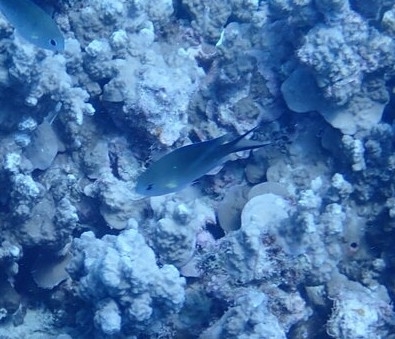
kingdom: Animalia
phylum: Chordata
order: Perciformes
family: Pomacentridae
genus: Chromis
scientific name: Chromis ternatensis
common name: Ternate chromis
